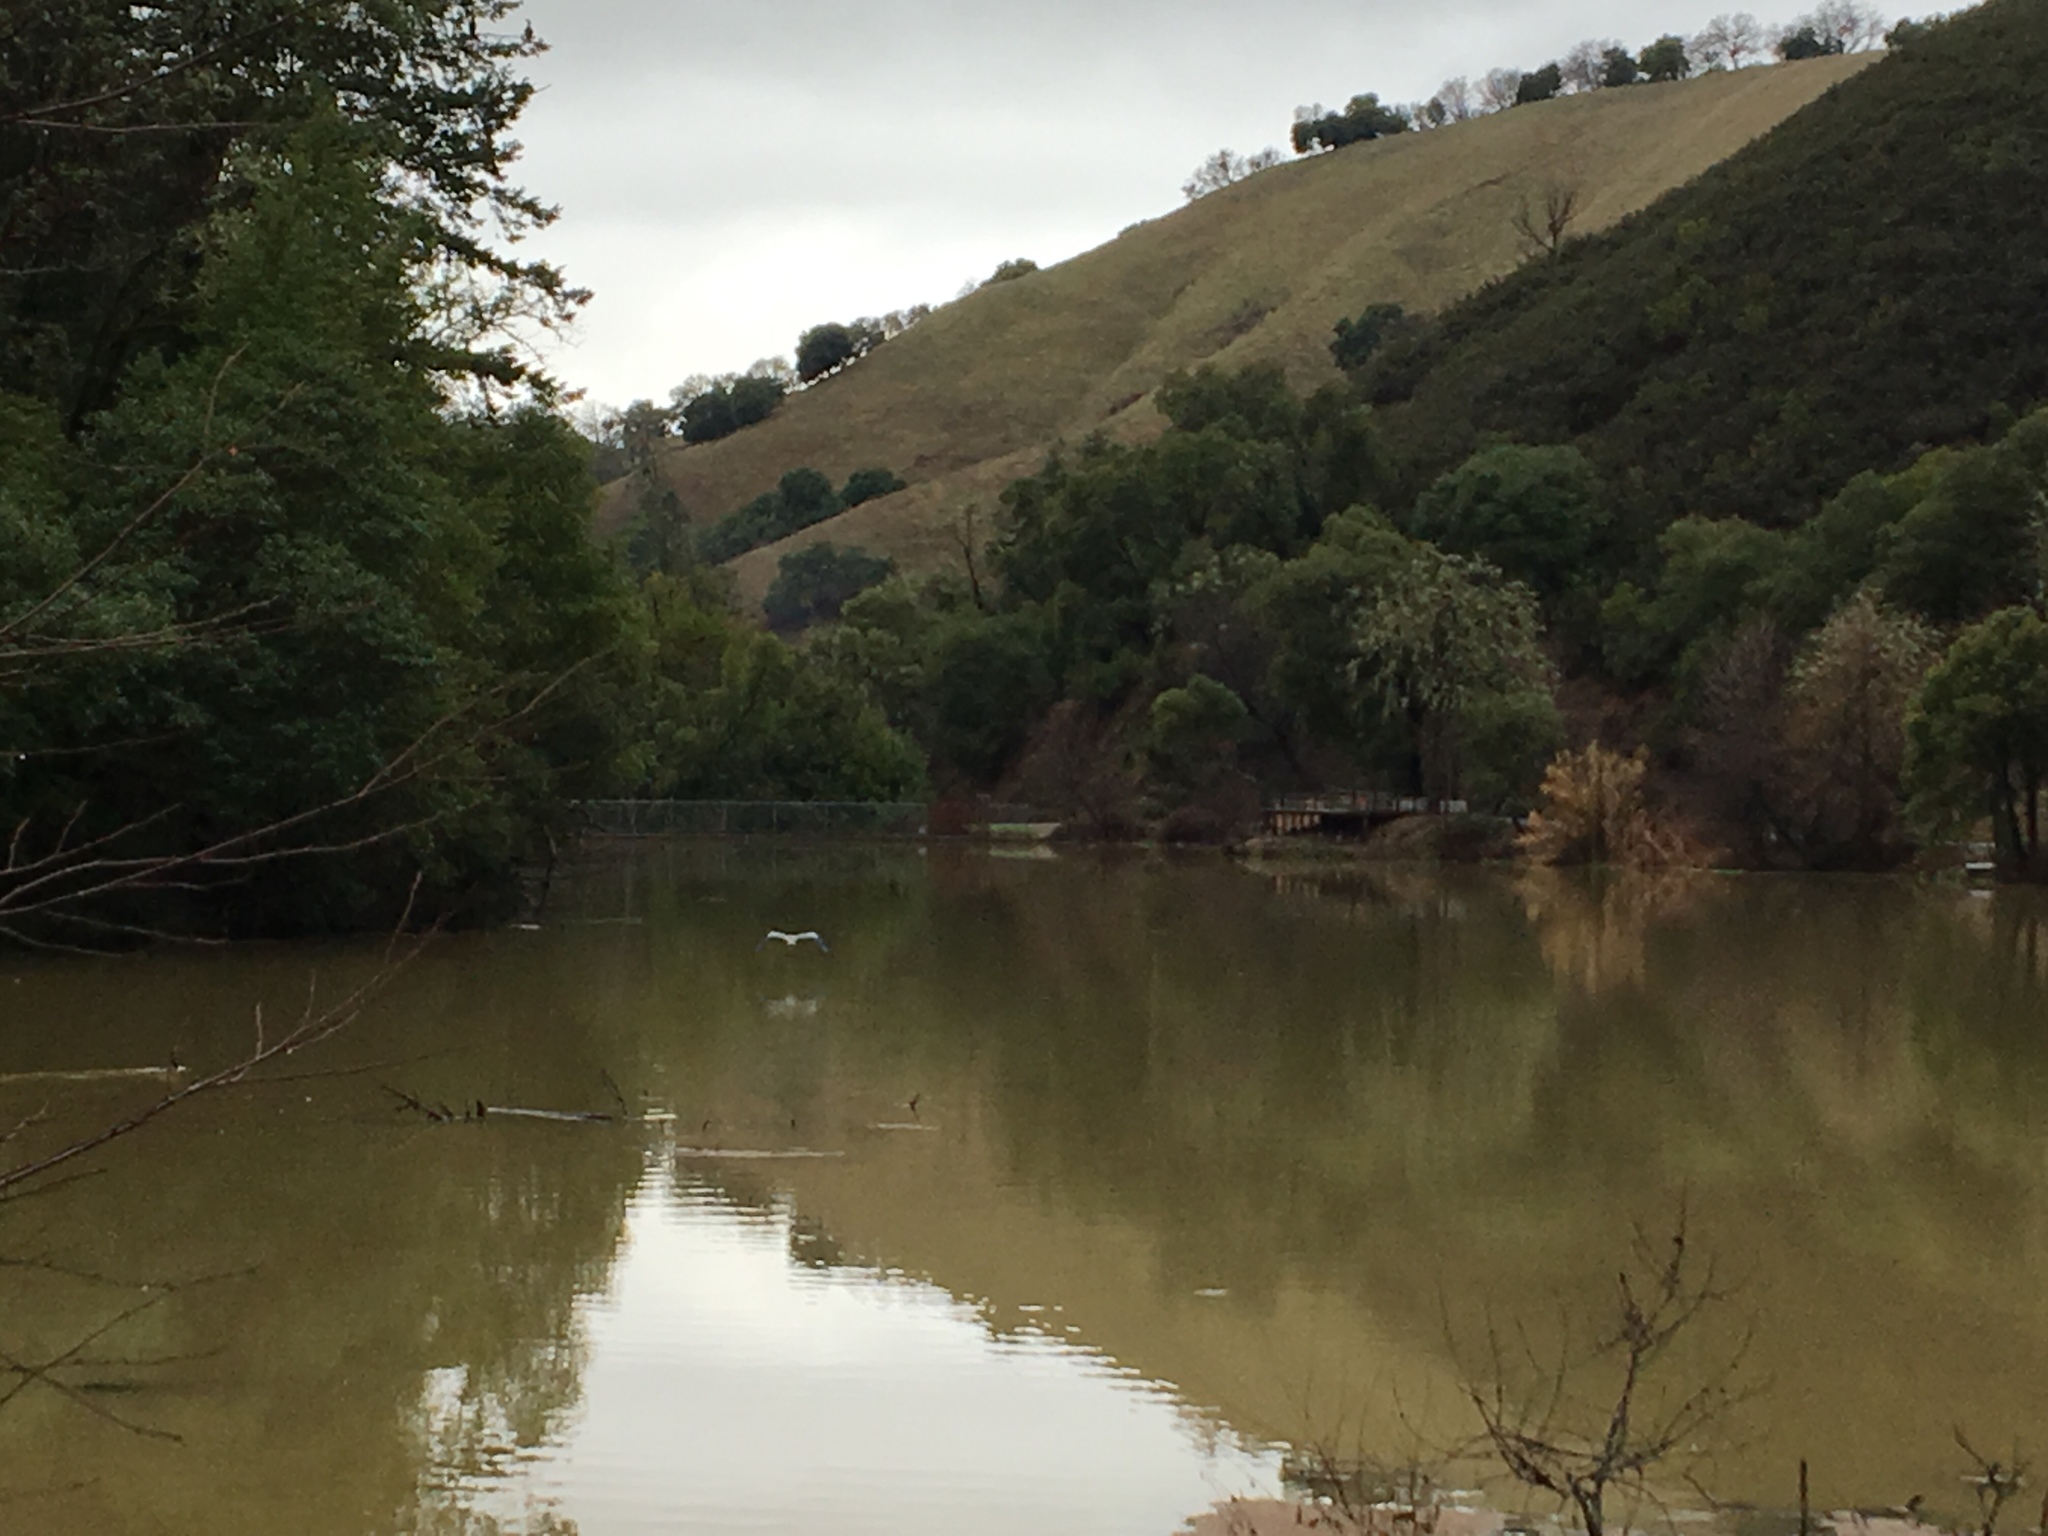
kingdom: Animalia
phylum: Chordata
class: Aves
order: Pelecaniformes
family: Ardeidae
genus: Ardea
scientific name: Ardea herodias
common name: Great blue heron
